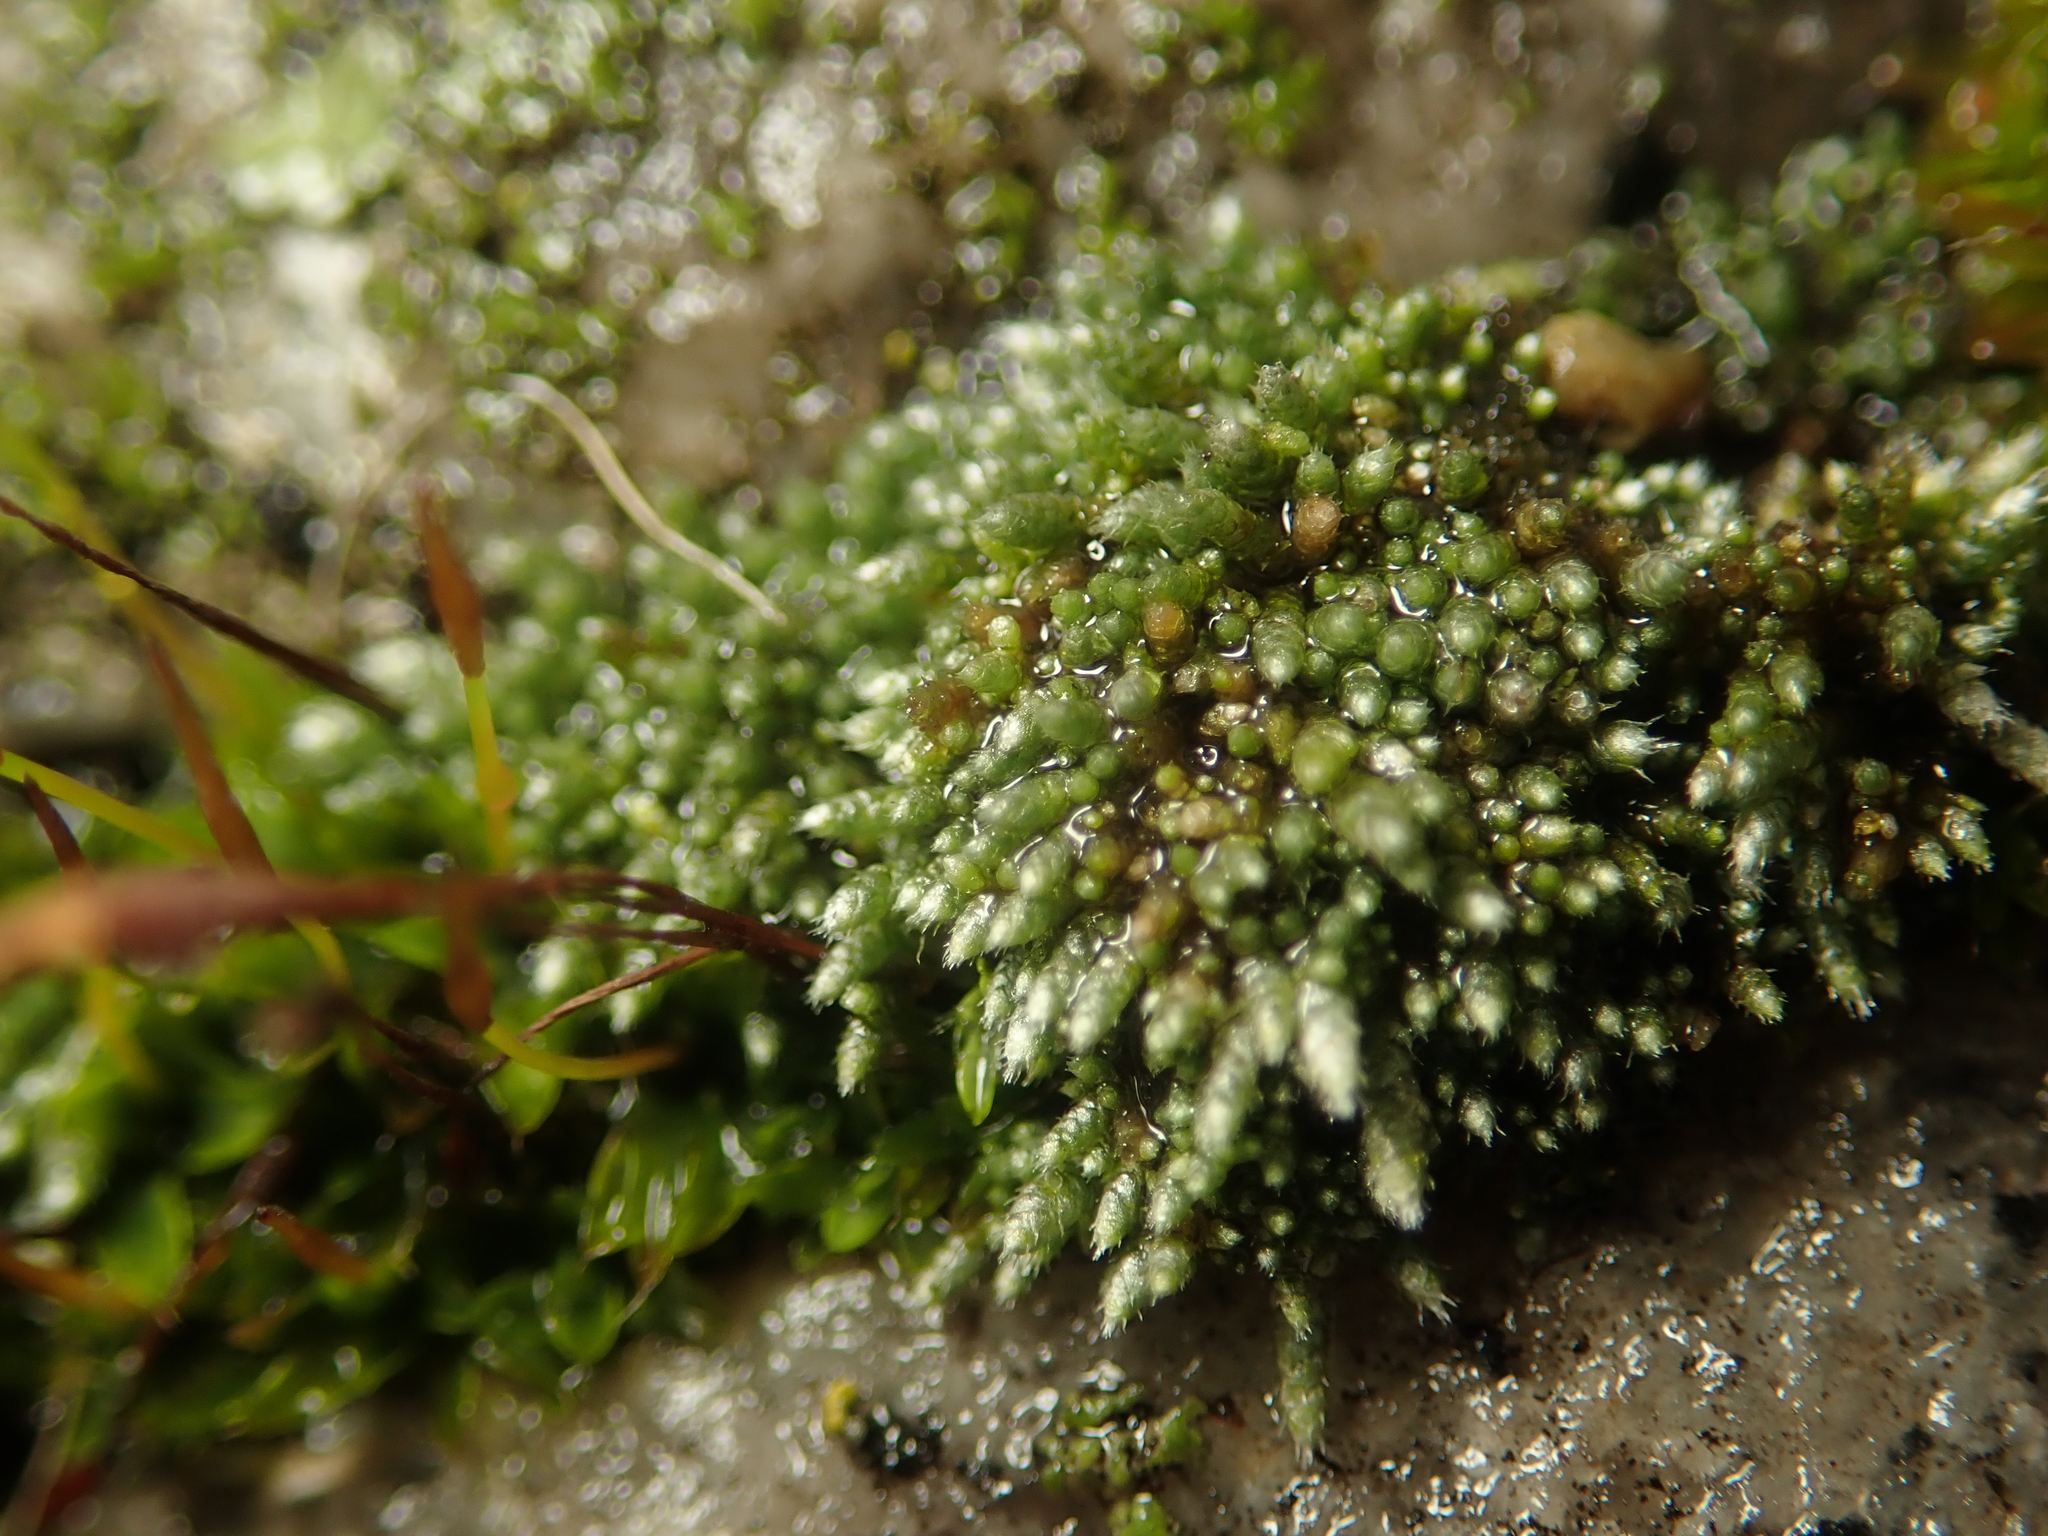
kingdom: Plantae
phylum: Bryophyta
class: Bryopsida
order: Bryales
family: Bryaceae
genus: Bryum
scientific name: Bryum argenteum
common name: Silver-moss
